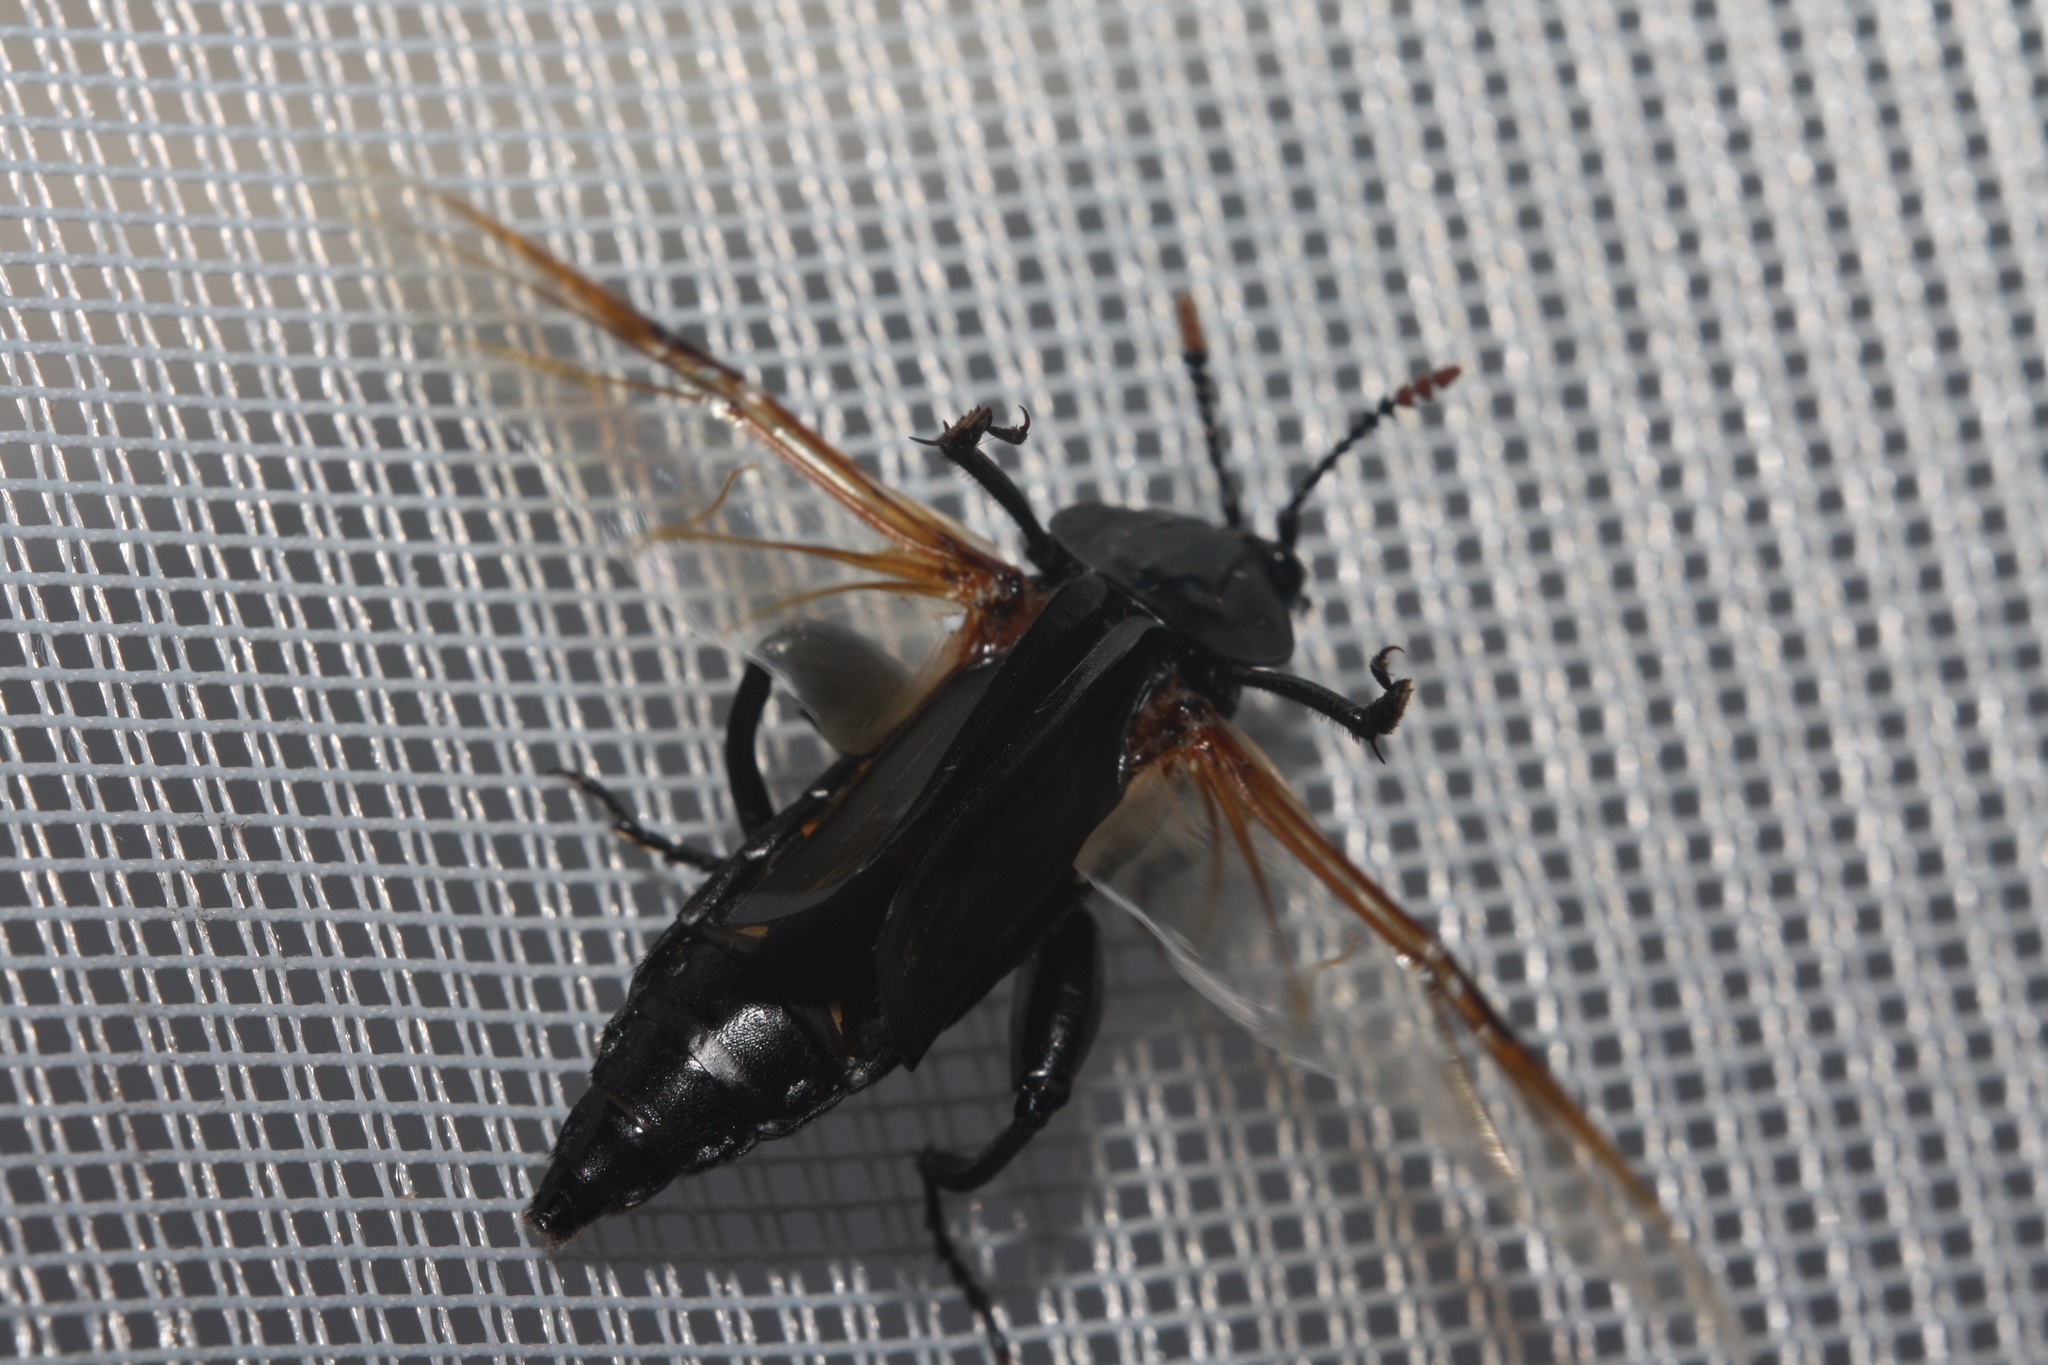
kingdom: Animalia
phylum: Arthropoda
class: Insecta
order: Coleoptera
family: Staphylinidae
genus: Necrodes
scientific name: Necrodes littoralis
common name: Shore sexton beetle
